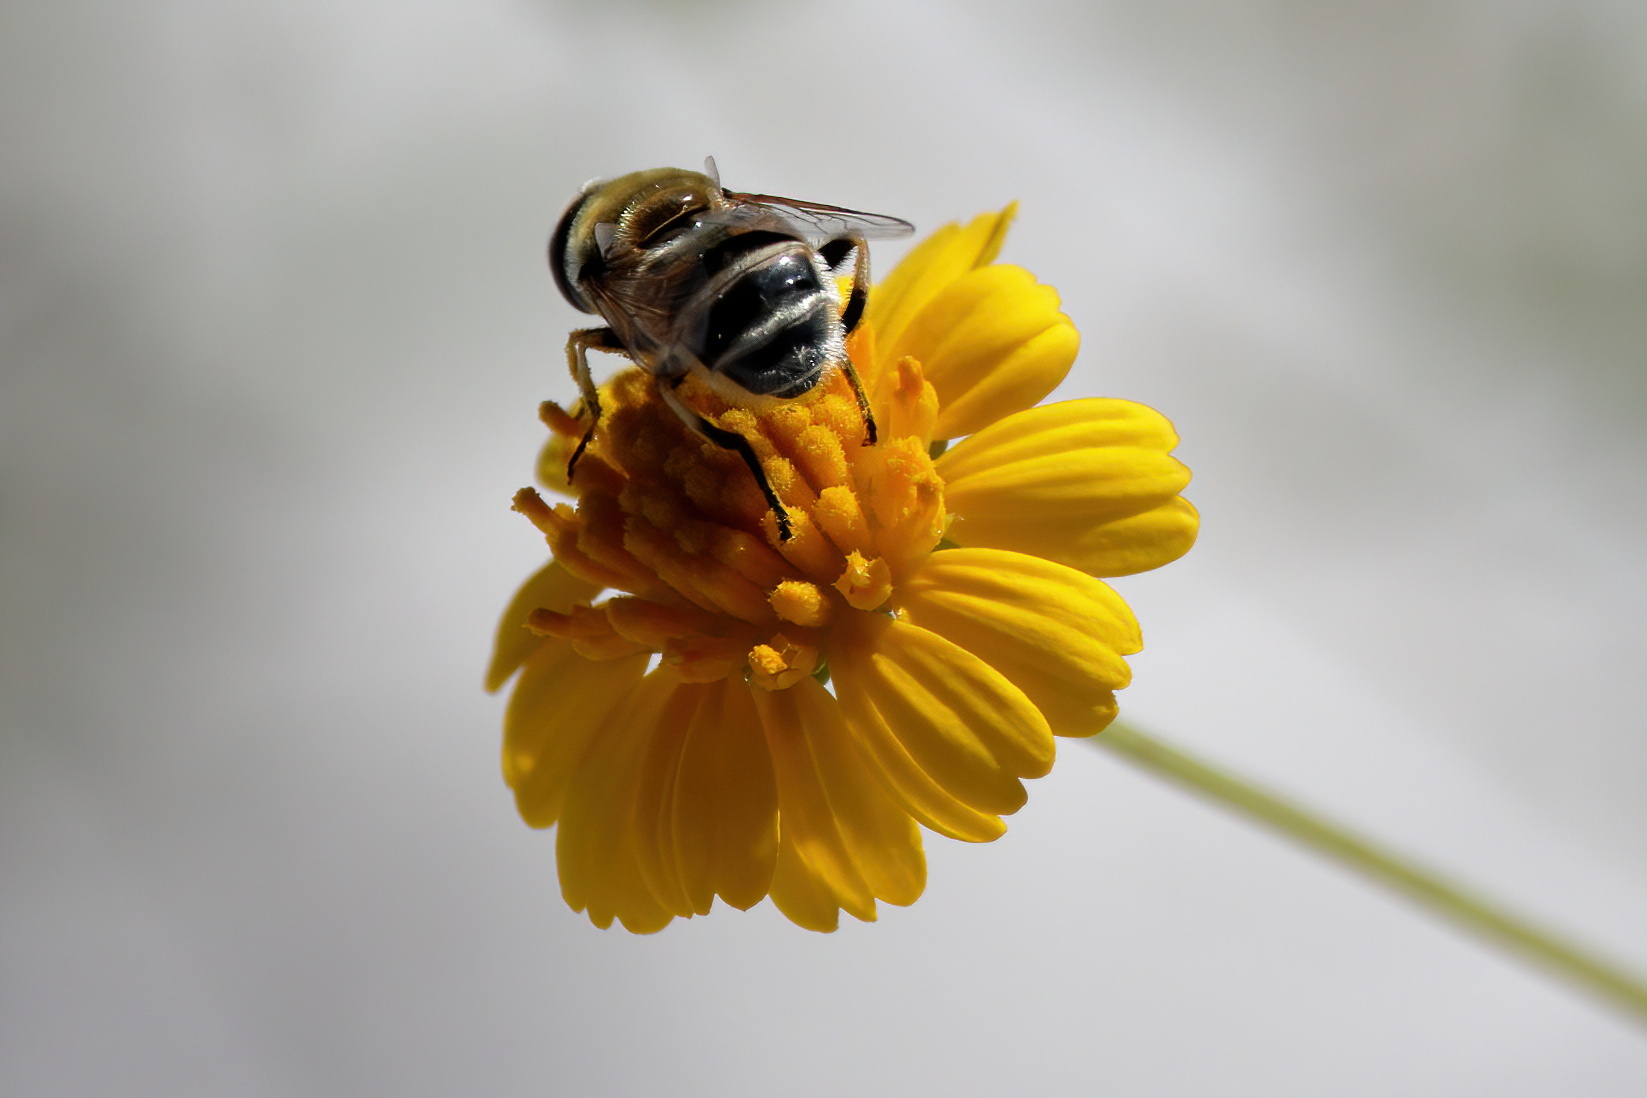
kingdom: Animalia
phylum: Arthropoda
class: Insecta
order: Diptera
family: Syrphidae
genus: Eristalis
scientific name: Eristalis stipator
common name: Yellow-shouldered drone fly
